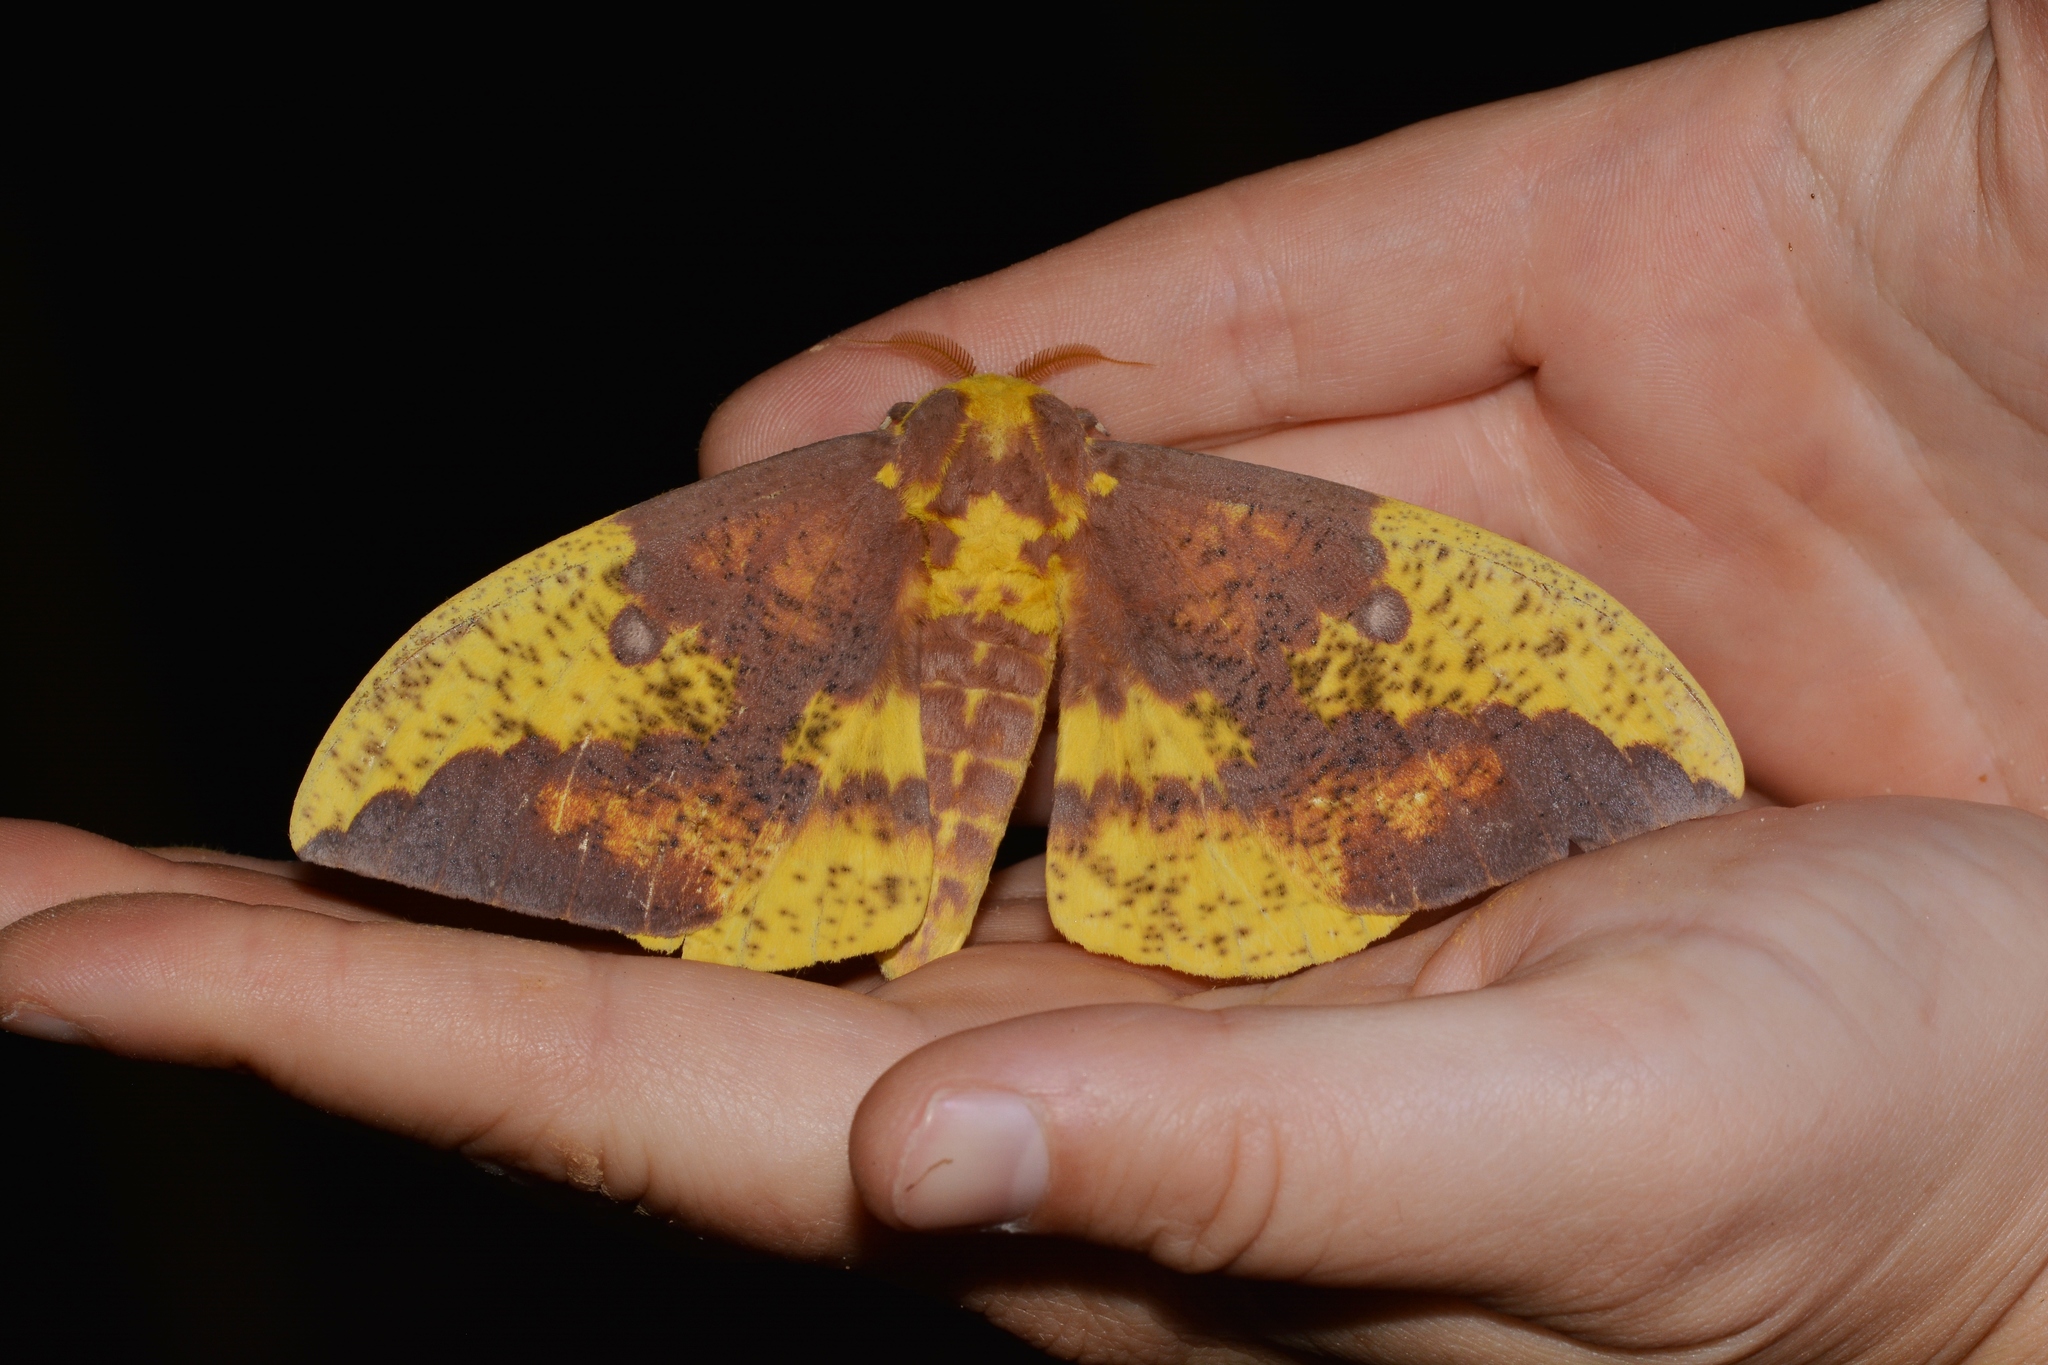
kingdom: Animalia
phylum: Arthropoda
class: Insecta
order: Lepidoptera
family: Saturniidae
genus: Eacles
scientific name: Eacles imperialis
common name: Imperial moth
